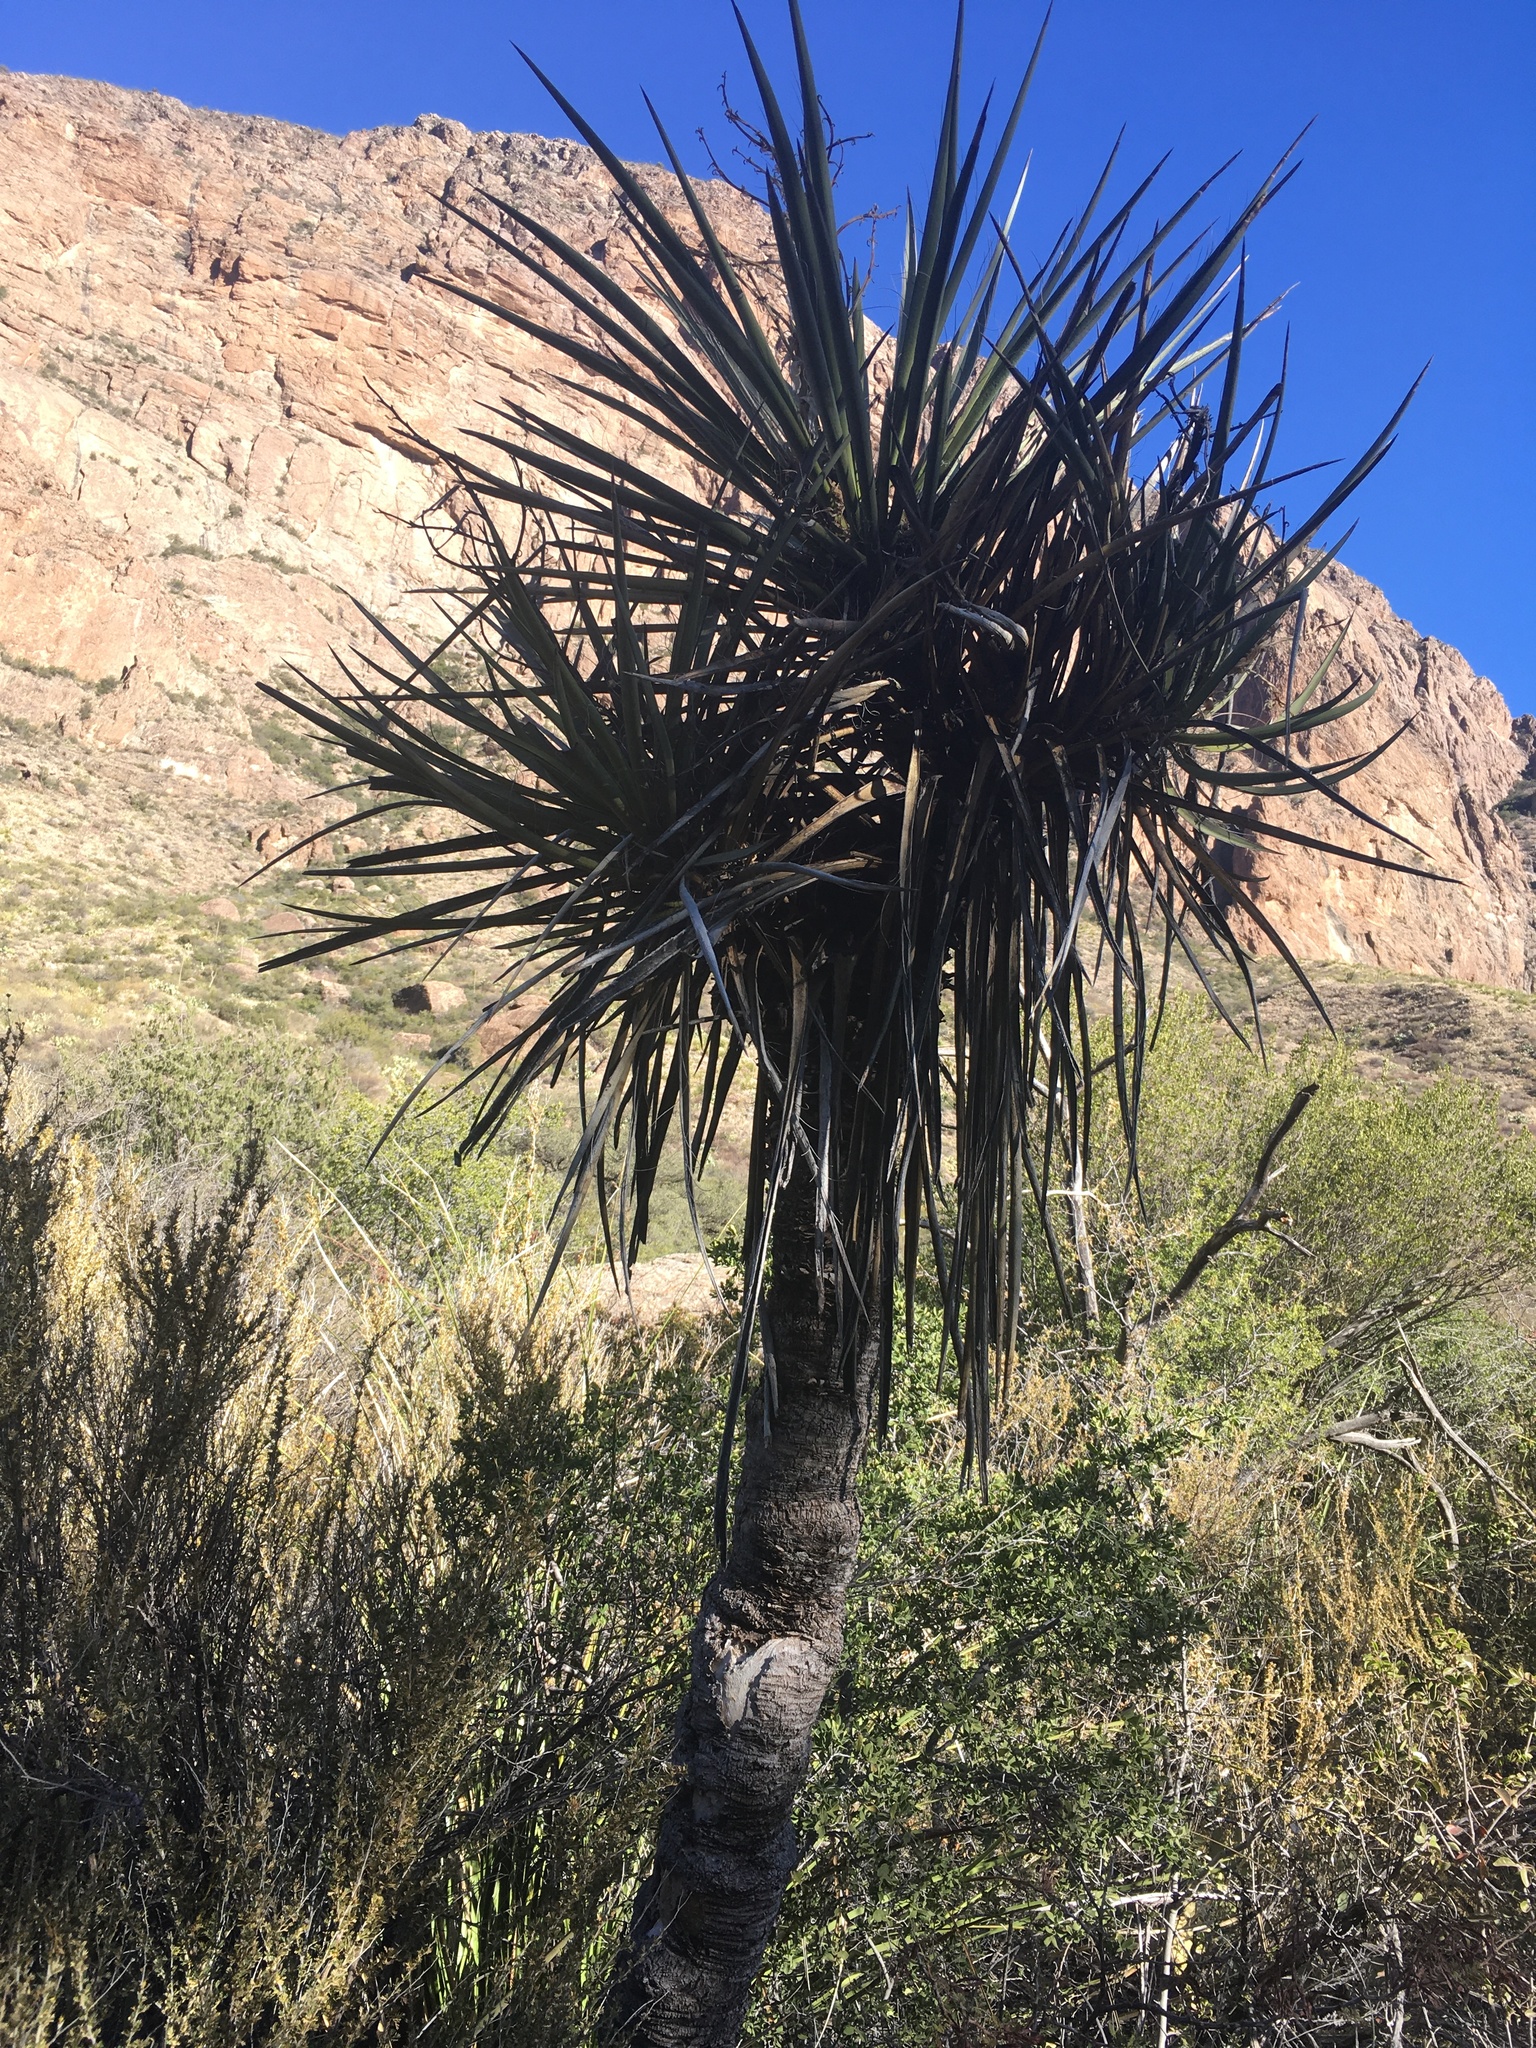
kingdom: Plantae
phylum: Tracheophyta
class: Liliopsida
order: Asparagales
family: Asparagaceae
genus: Yucca
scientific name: Yucca treculiana
